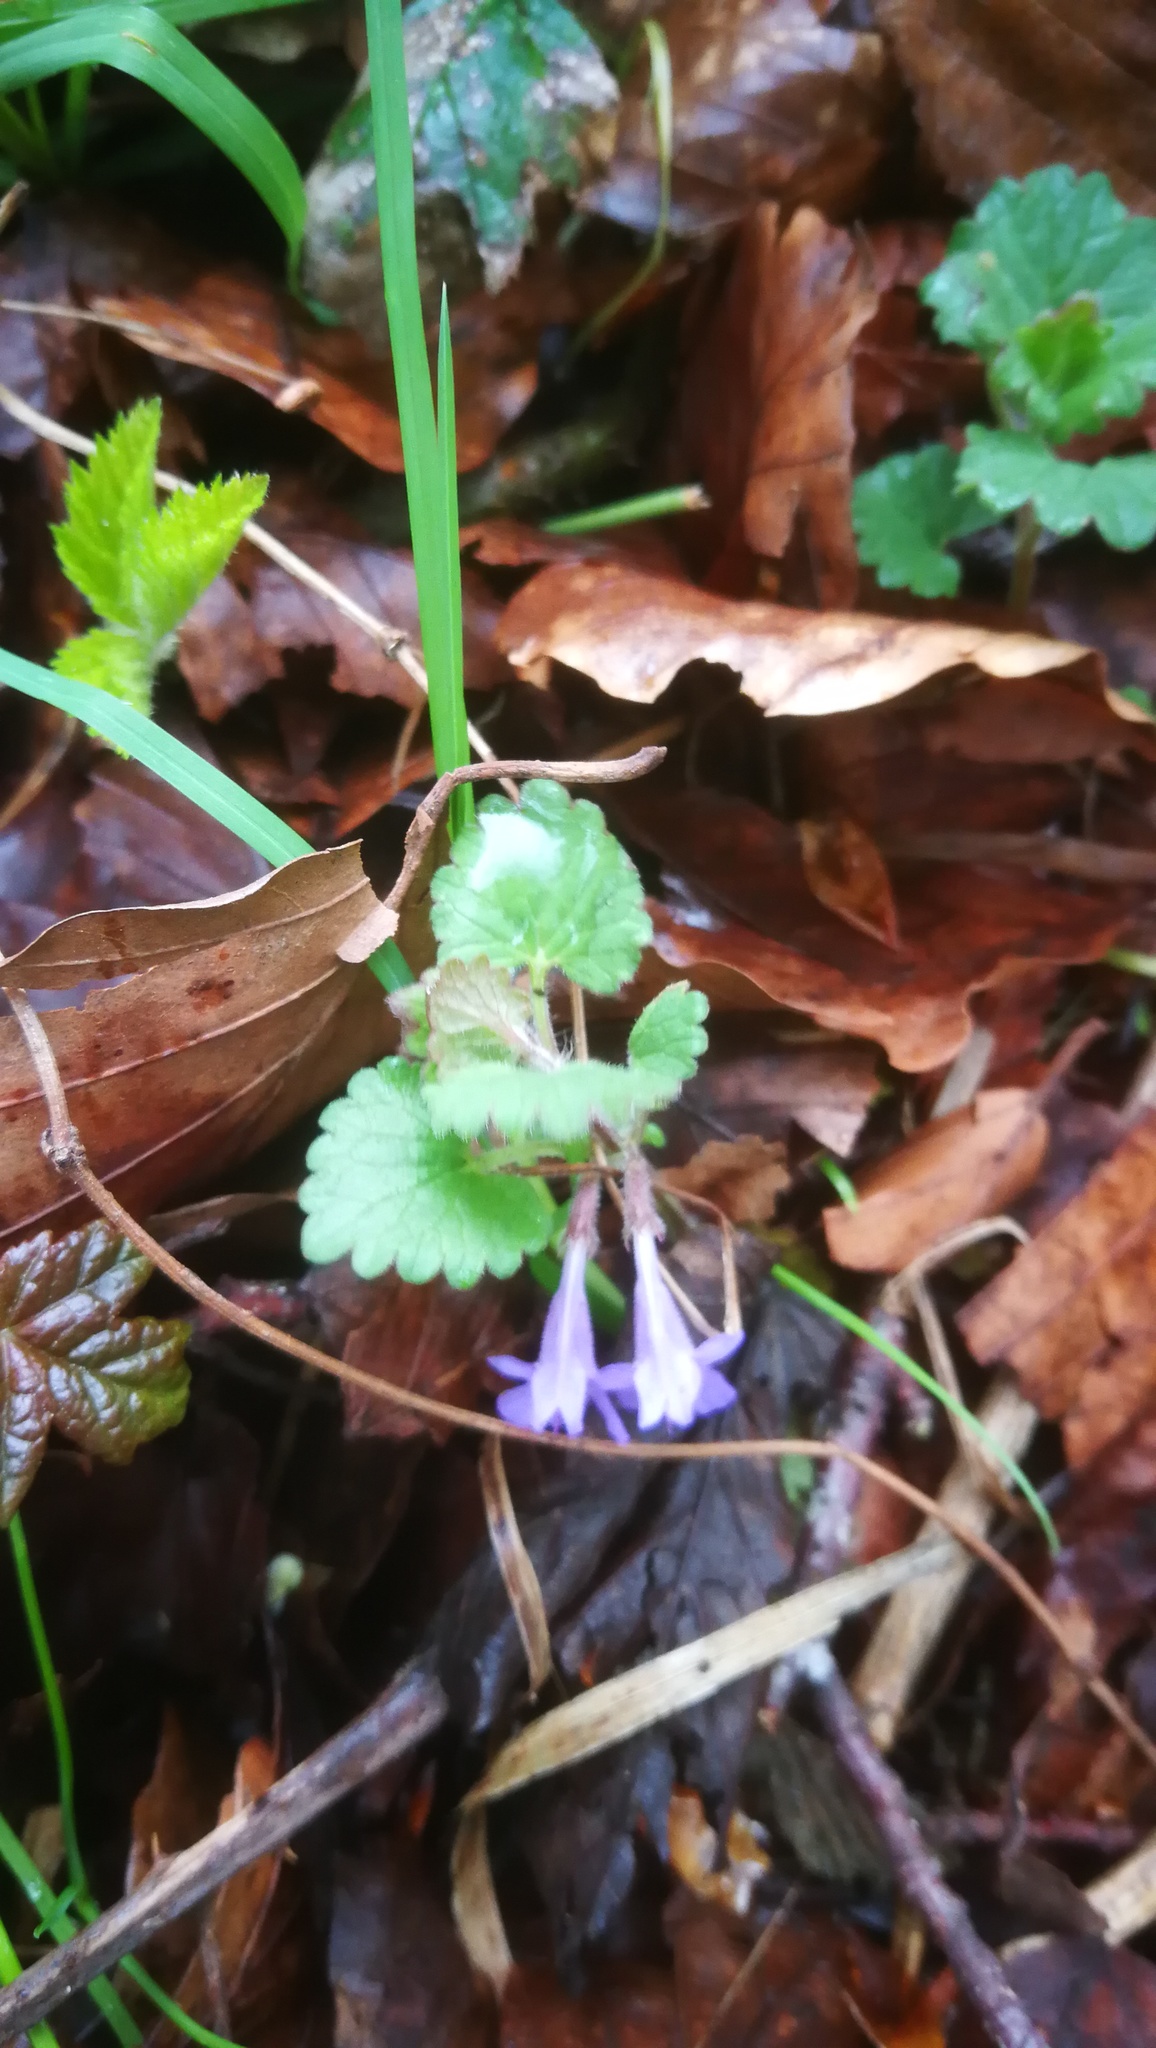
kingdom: Plantae
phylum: Tracheophyta
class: Magnoliopsida
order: Lamiales
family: Lamiaceae
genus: Glechoma
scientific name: Glechoma hederacea
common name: Ground ivy
